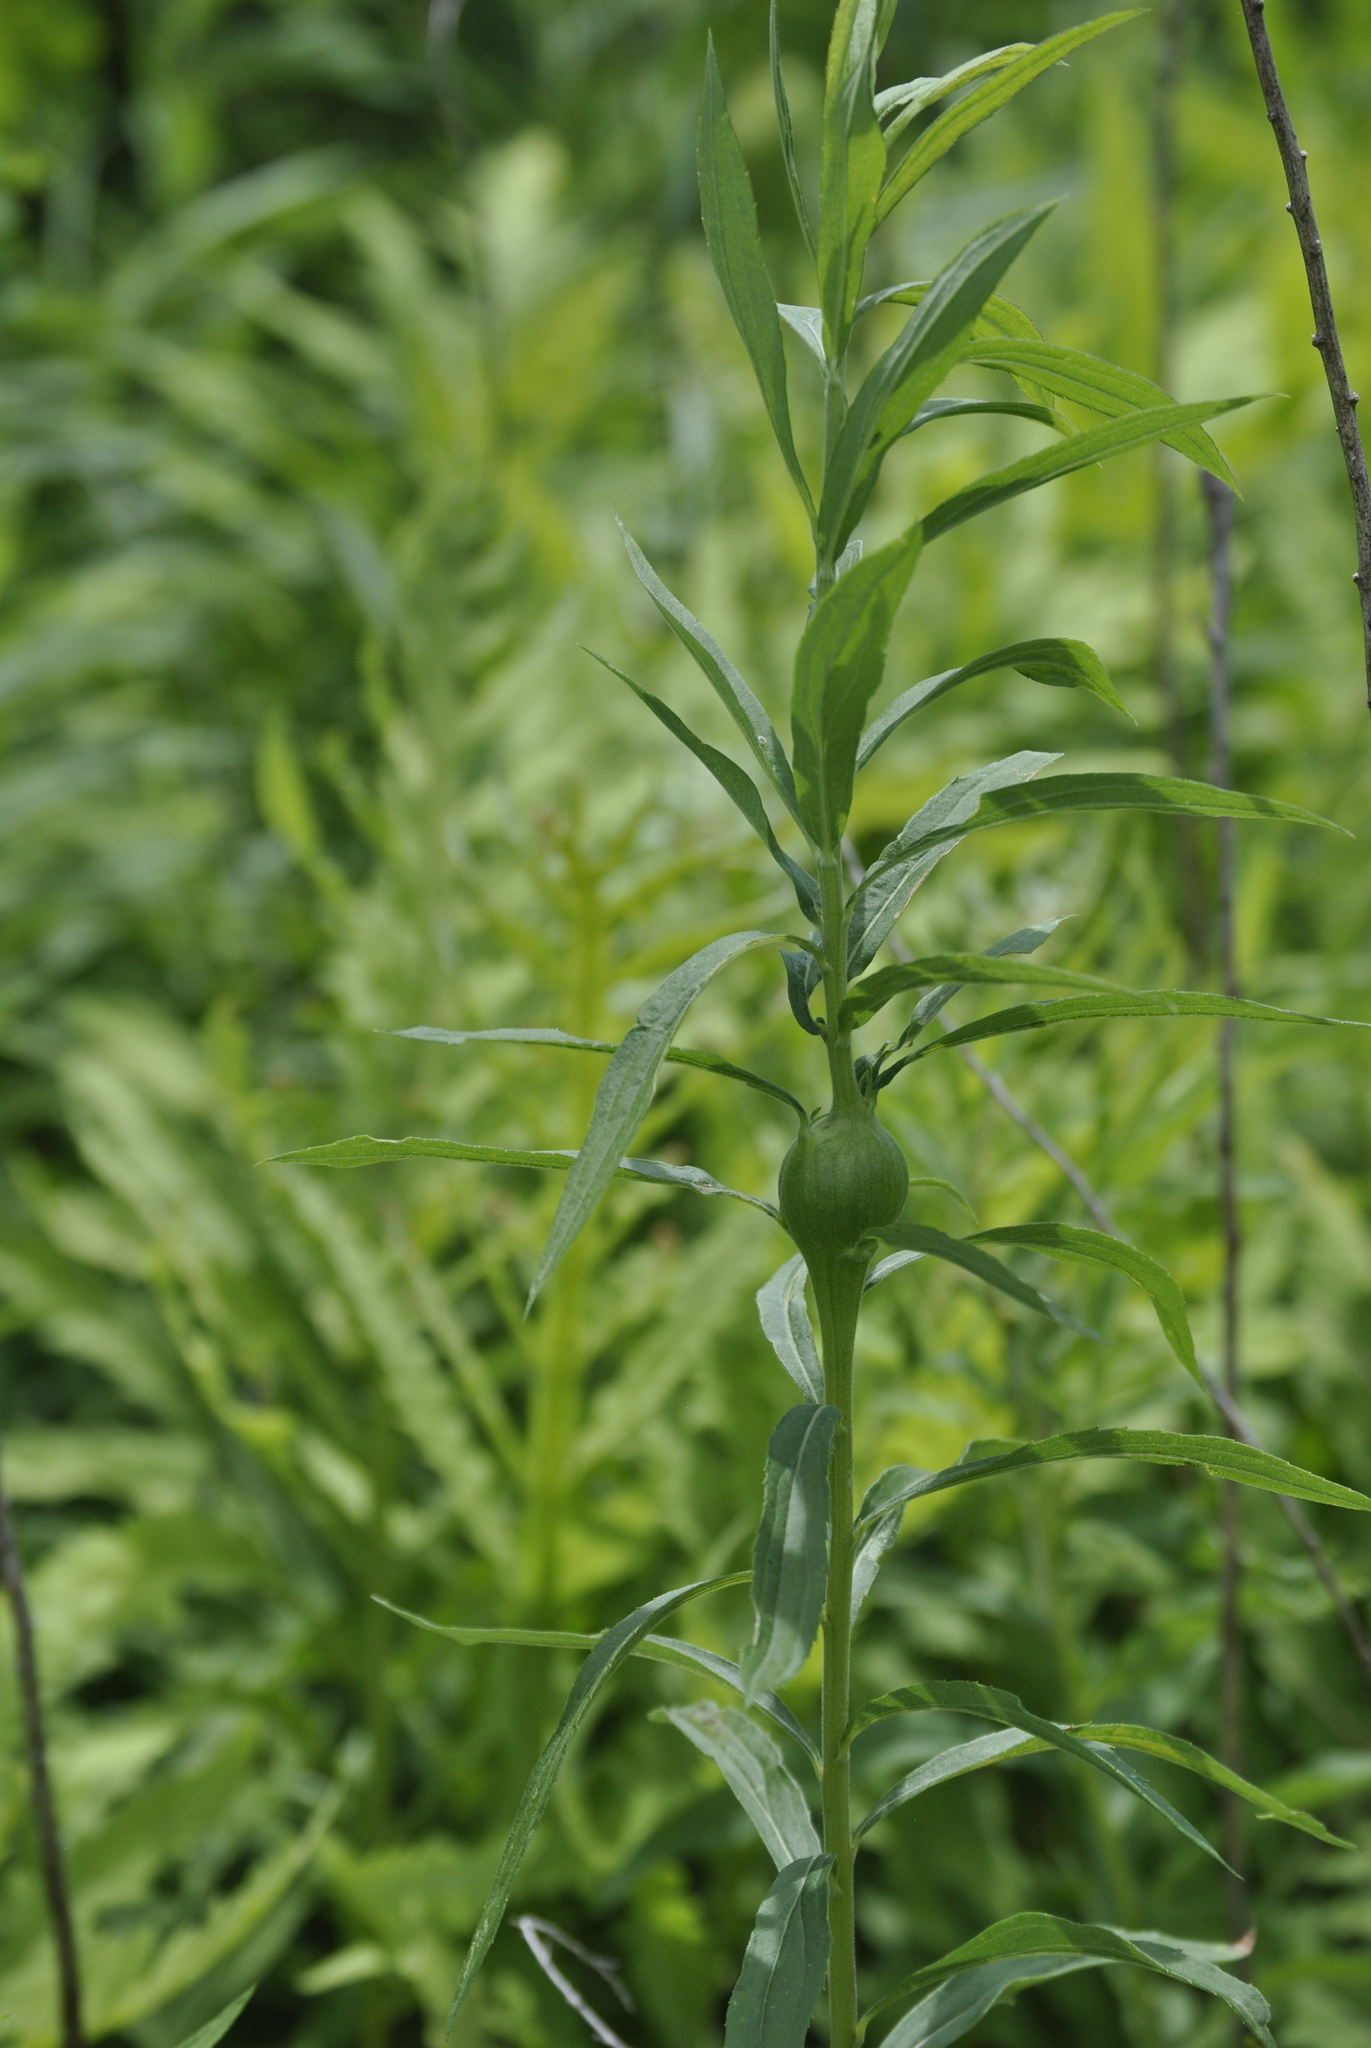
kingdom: Animalia
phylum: Arthropoda
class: Insecta
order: Diptera
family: Tephritidae
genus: Eurosta
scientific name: Eurosta solidaginis
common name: Goldenrod gall fly
